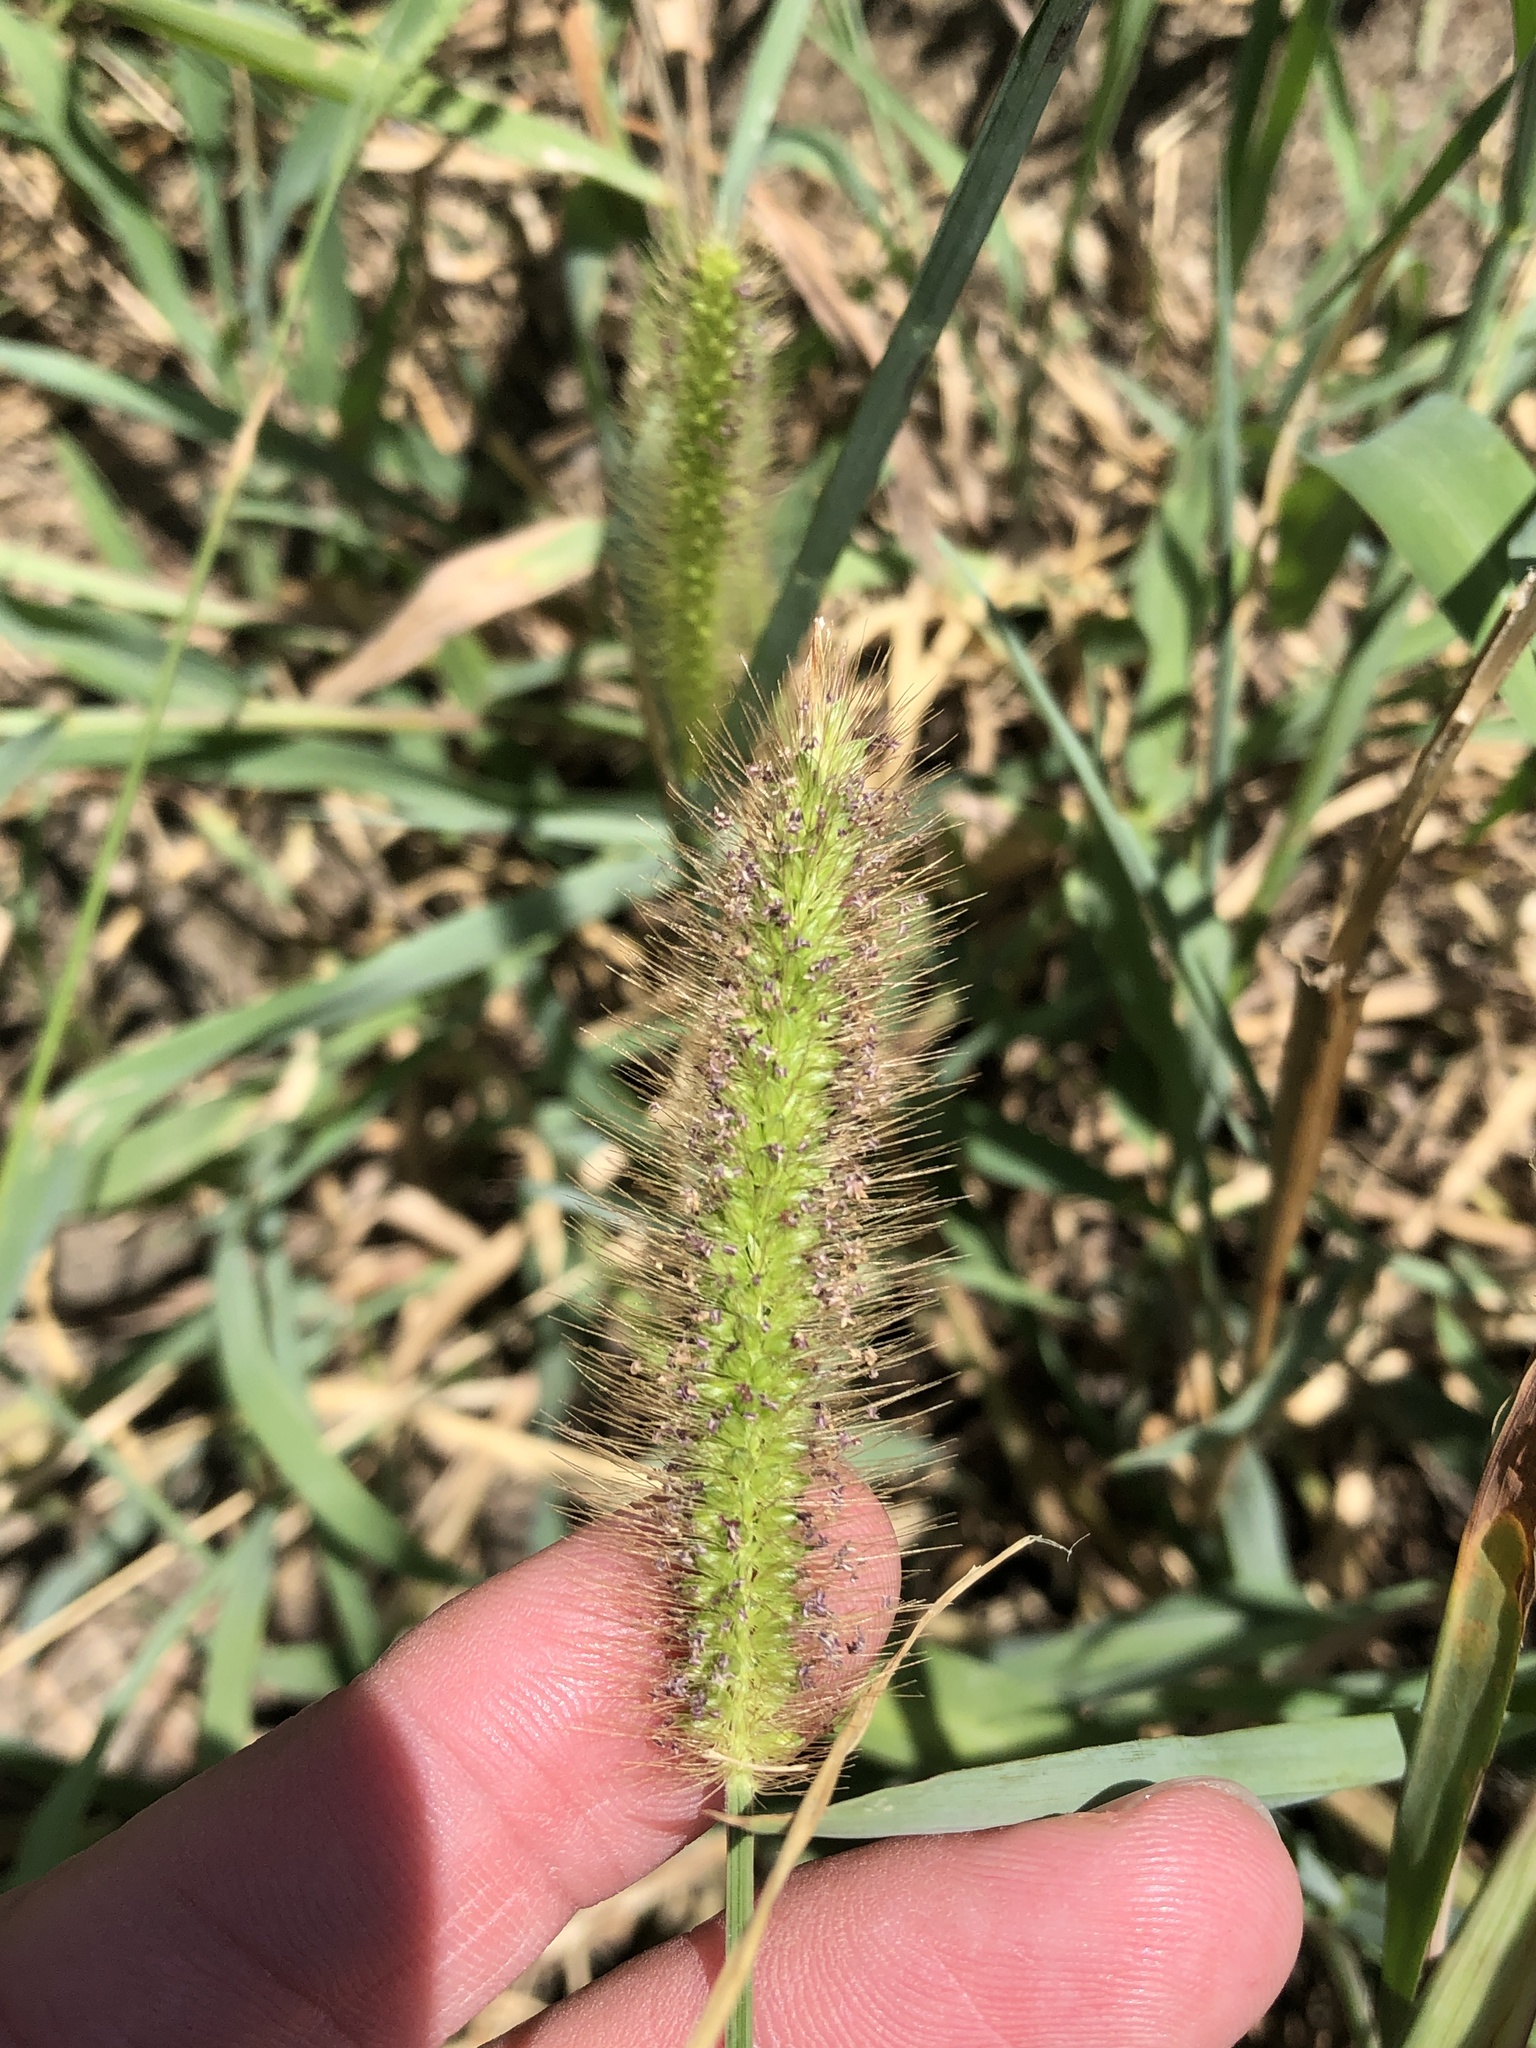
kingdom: Plantae
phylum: Tracheophyta
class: Liliopsida
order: Poales
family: Poaceae
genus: Setaria
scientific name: Setaria parviflora
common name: Knotroot bristle-grass
